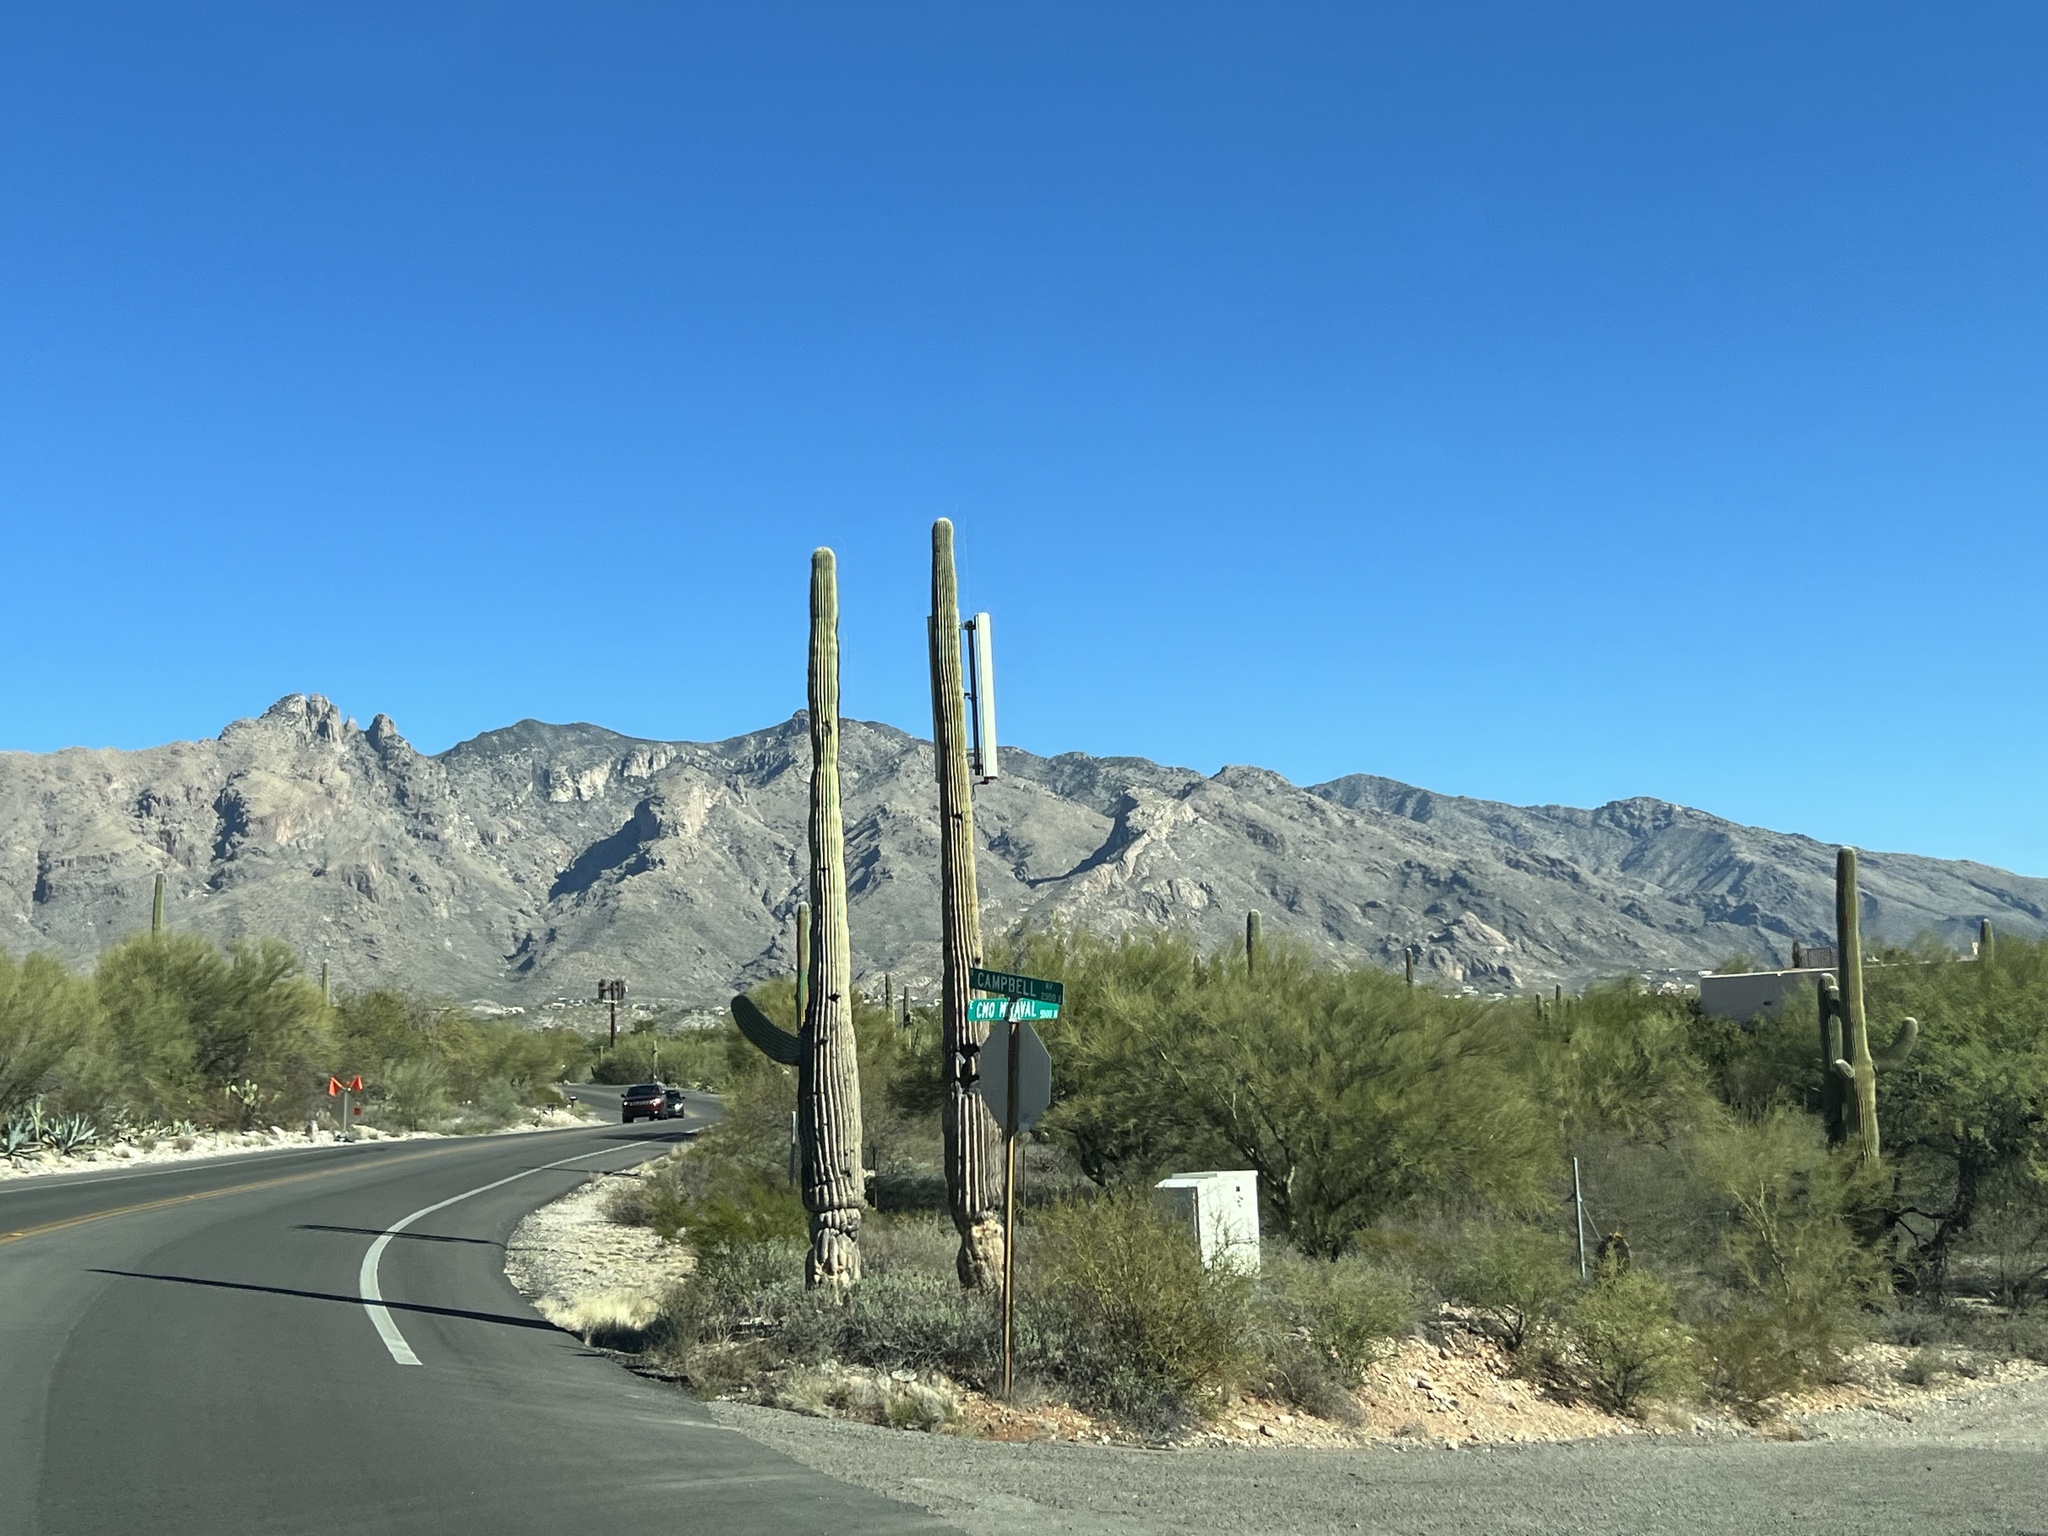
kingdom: Plantae
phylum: Tracheophyta
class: Magnoliopsida
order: Caryophyllales
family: Cactaceae
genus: Carnegiea
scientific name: Carnegiea gigantea
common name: Saguaro
